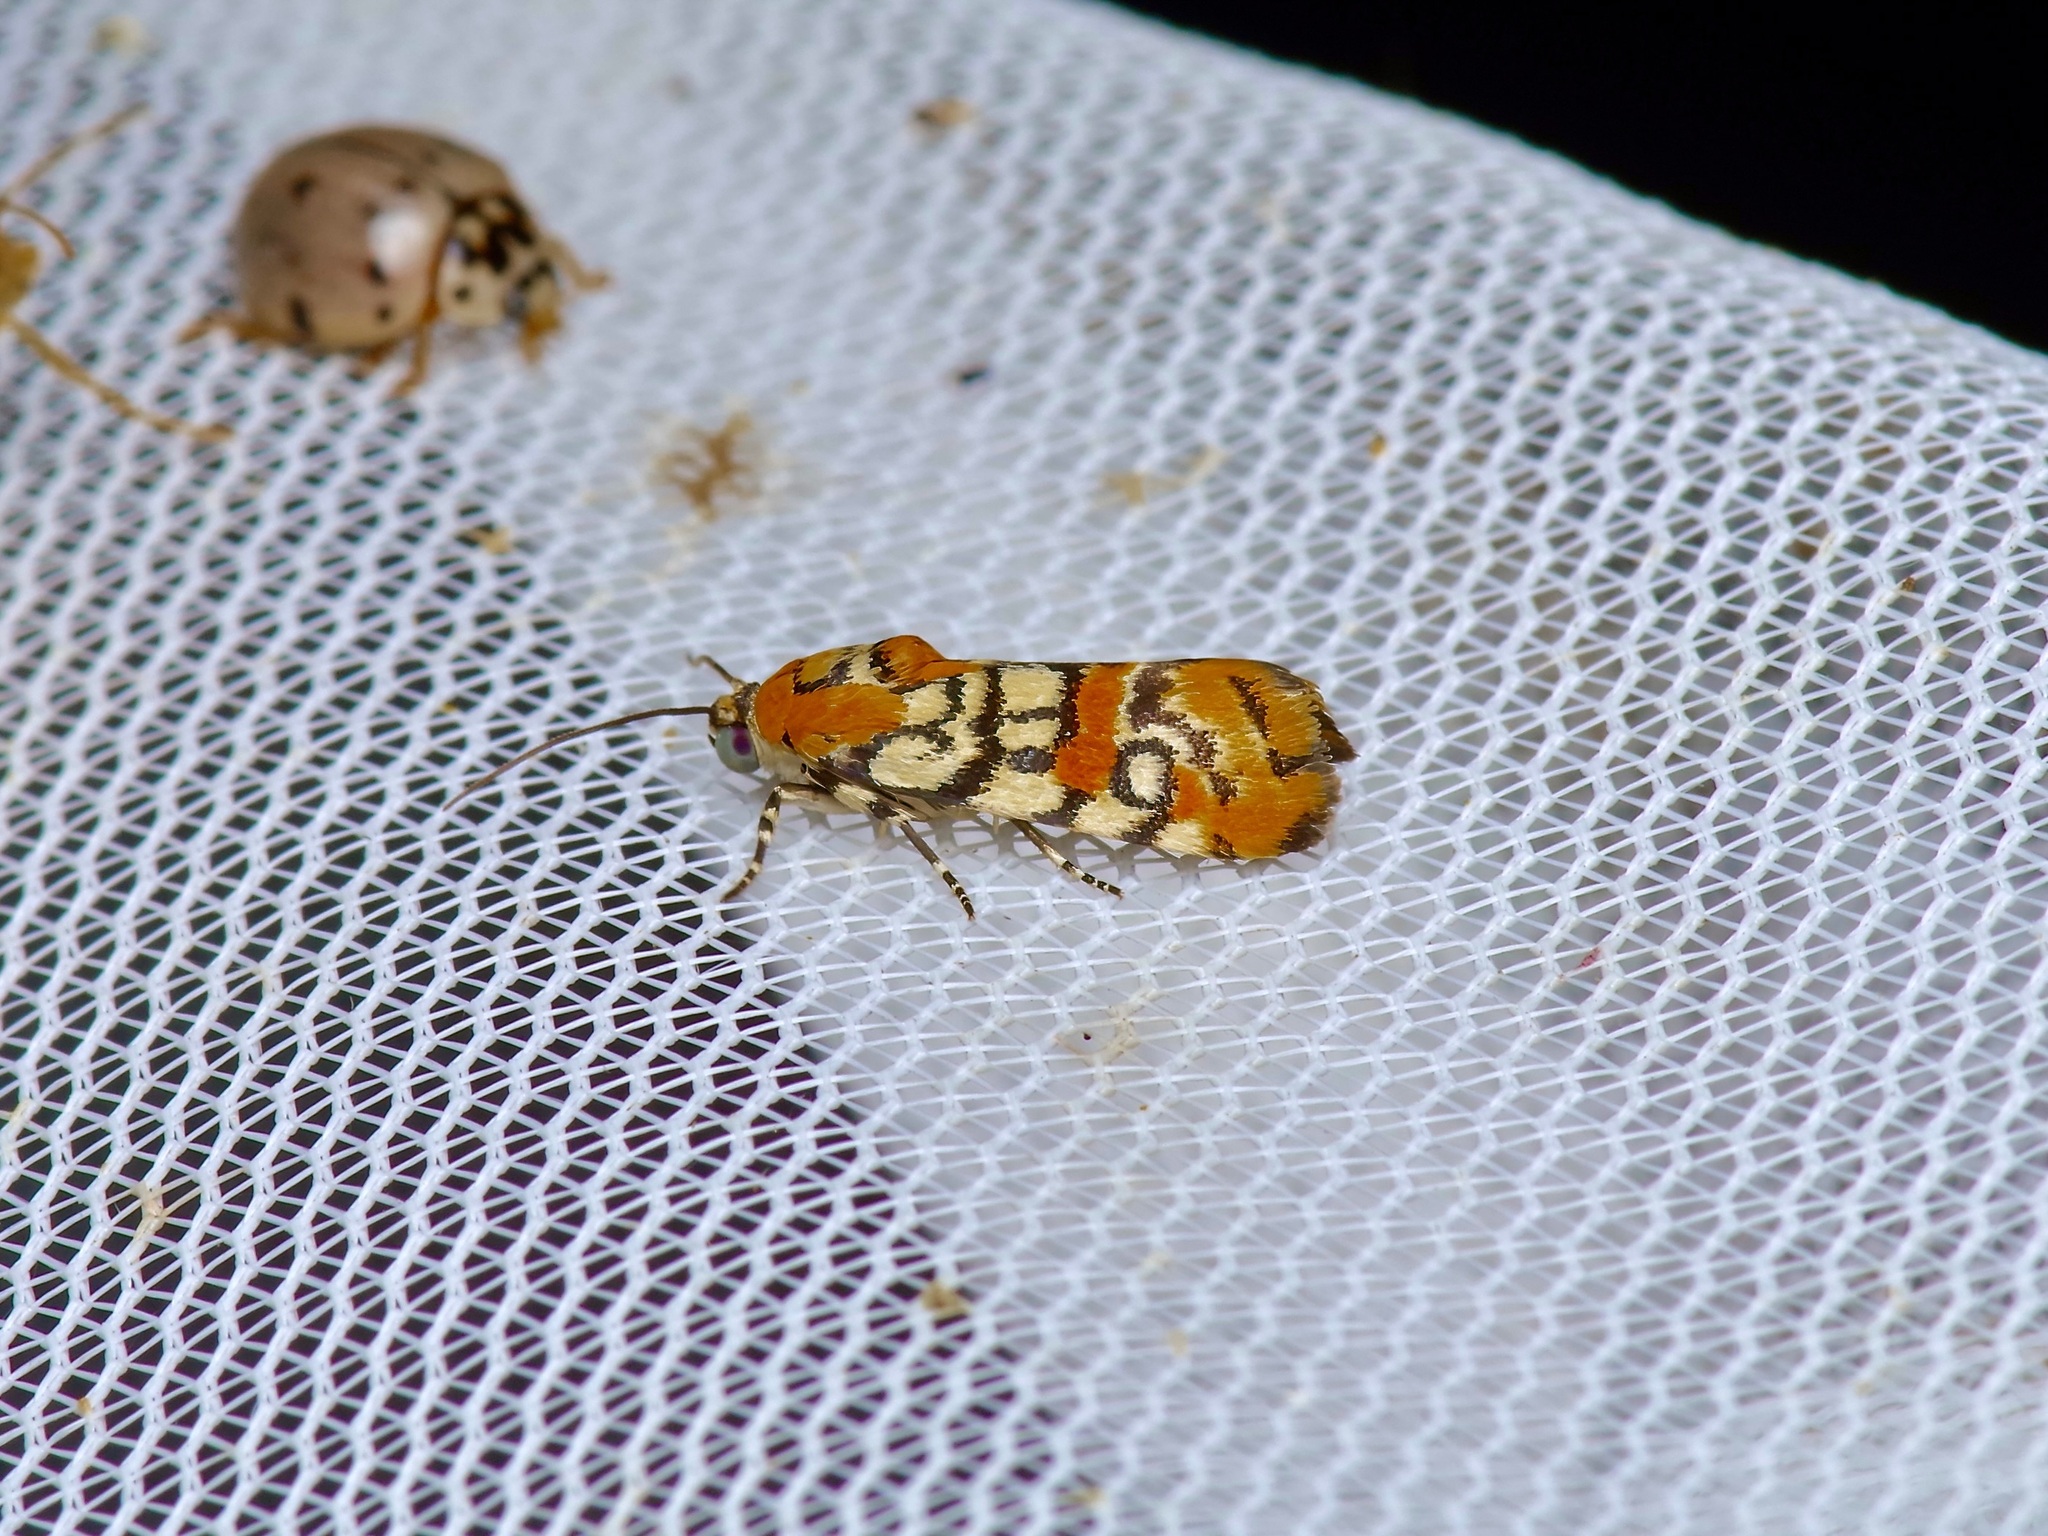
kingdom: Animalia
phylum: Arthropoda
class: Insecta
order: Lepidoptera
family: Noctuidae
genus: Spragueia
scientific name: Spragueia guttata
